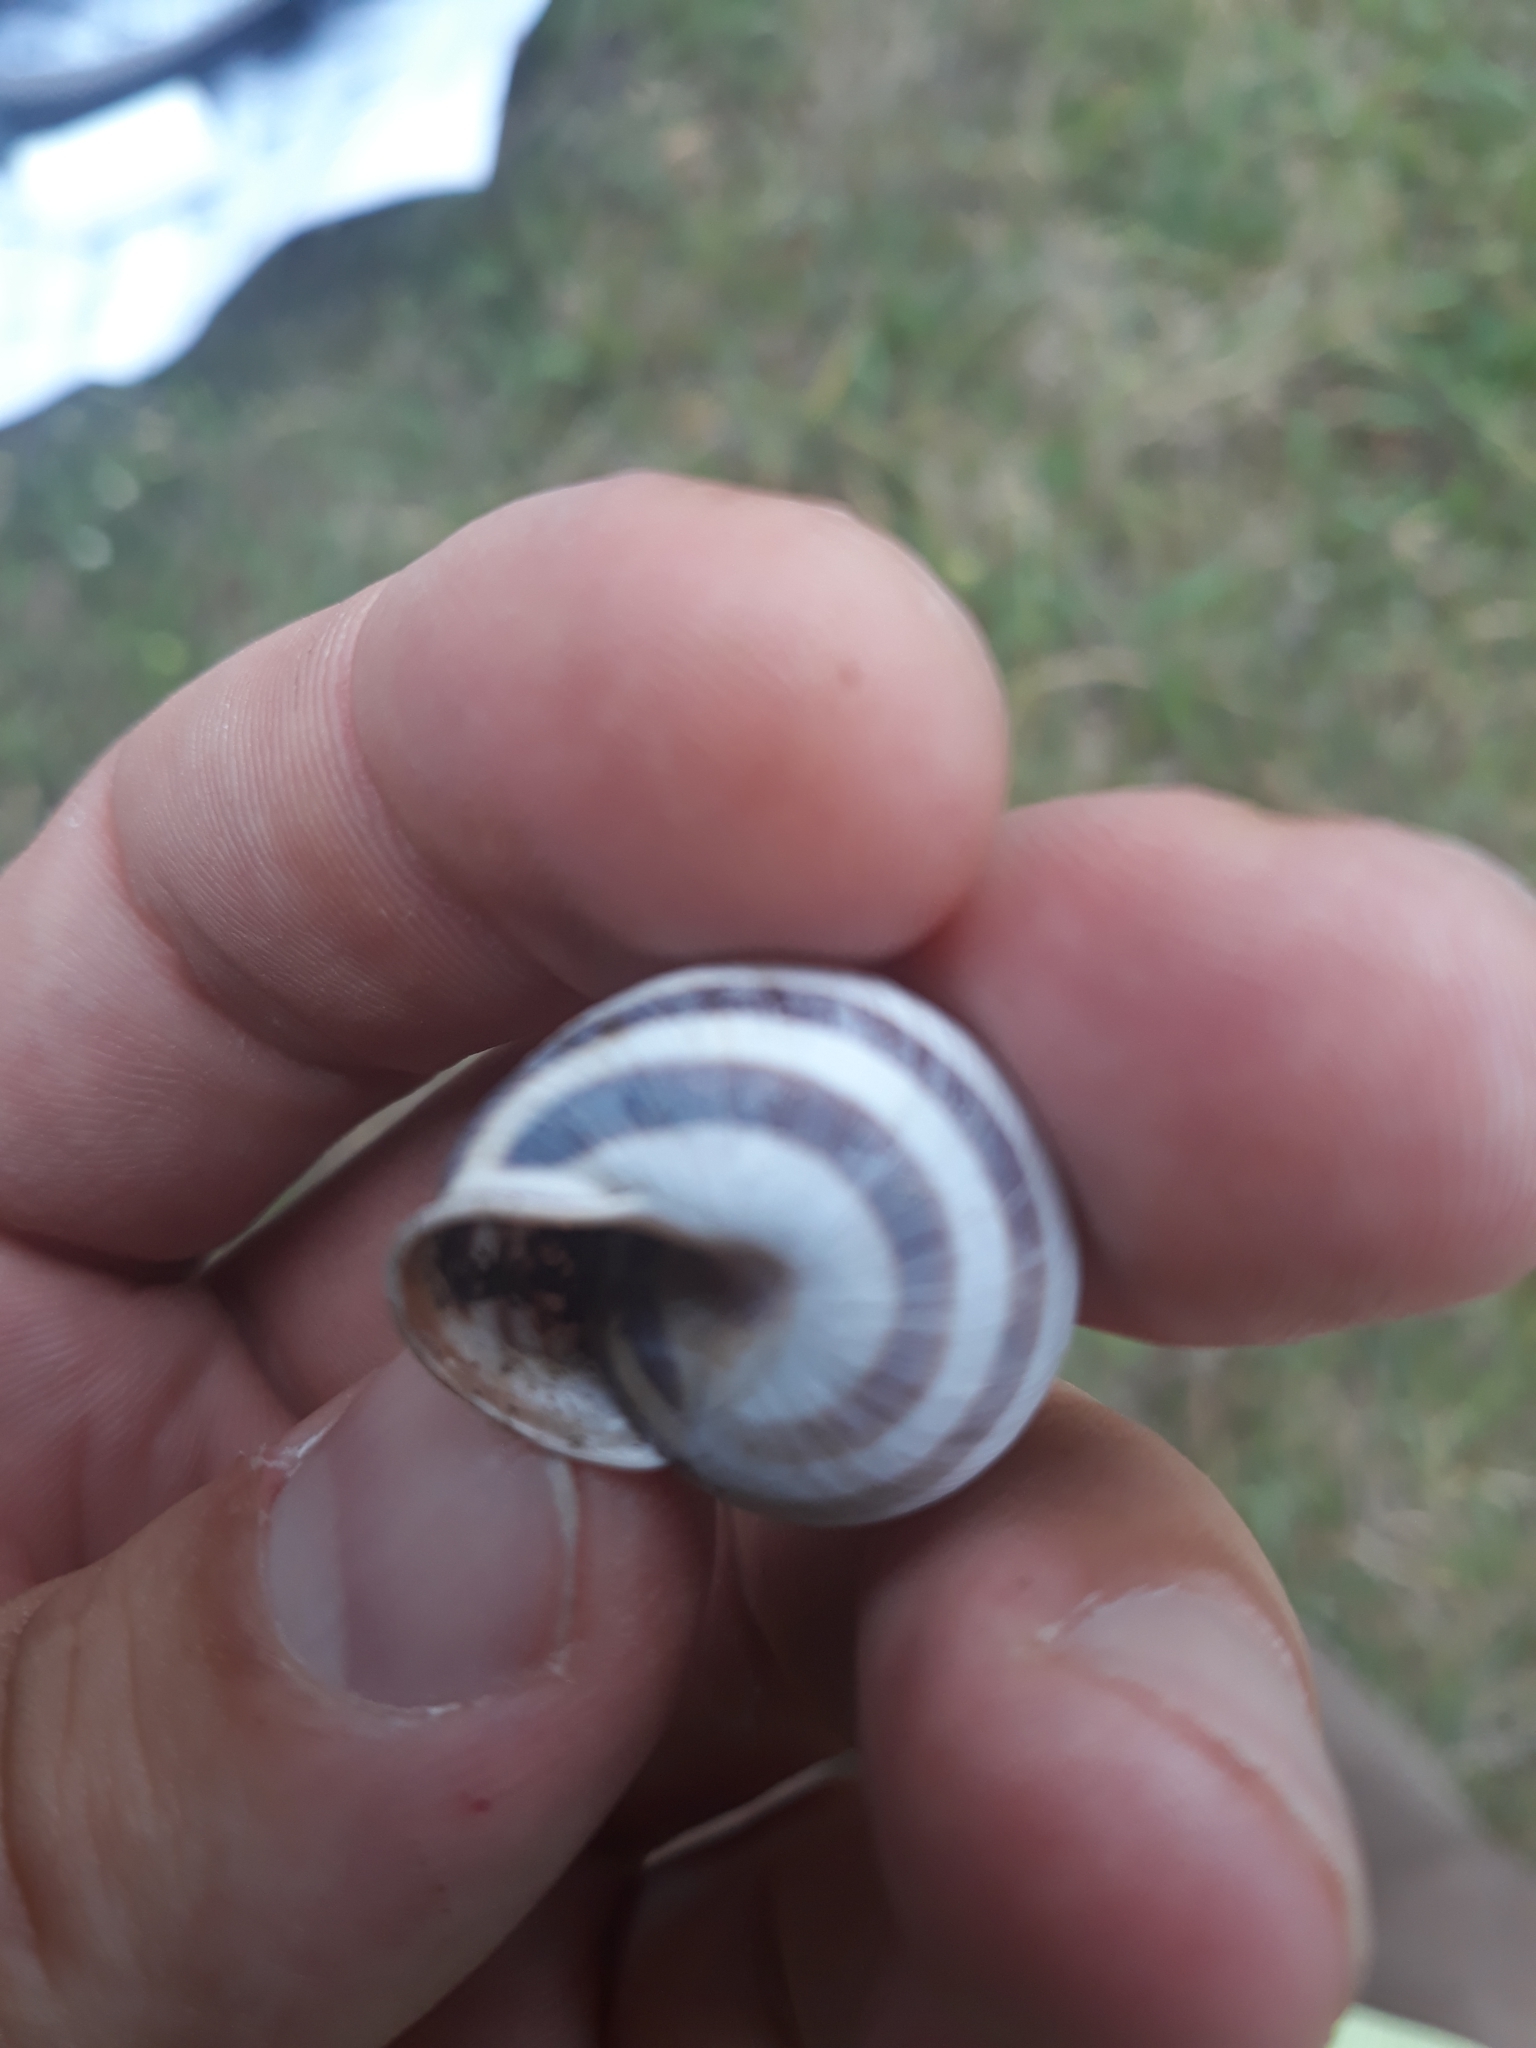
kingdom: Animalia
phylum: Mollusca
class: Gastropoda
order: Stylommatophora
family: Helicidae
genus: Caucasotachea
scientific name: Caucasotachea vindobonensis
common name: European helicid land snail
